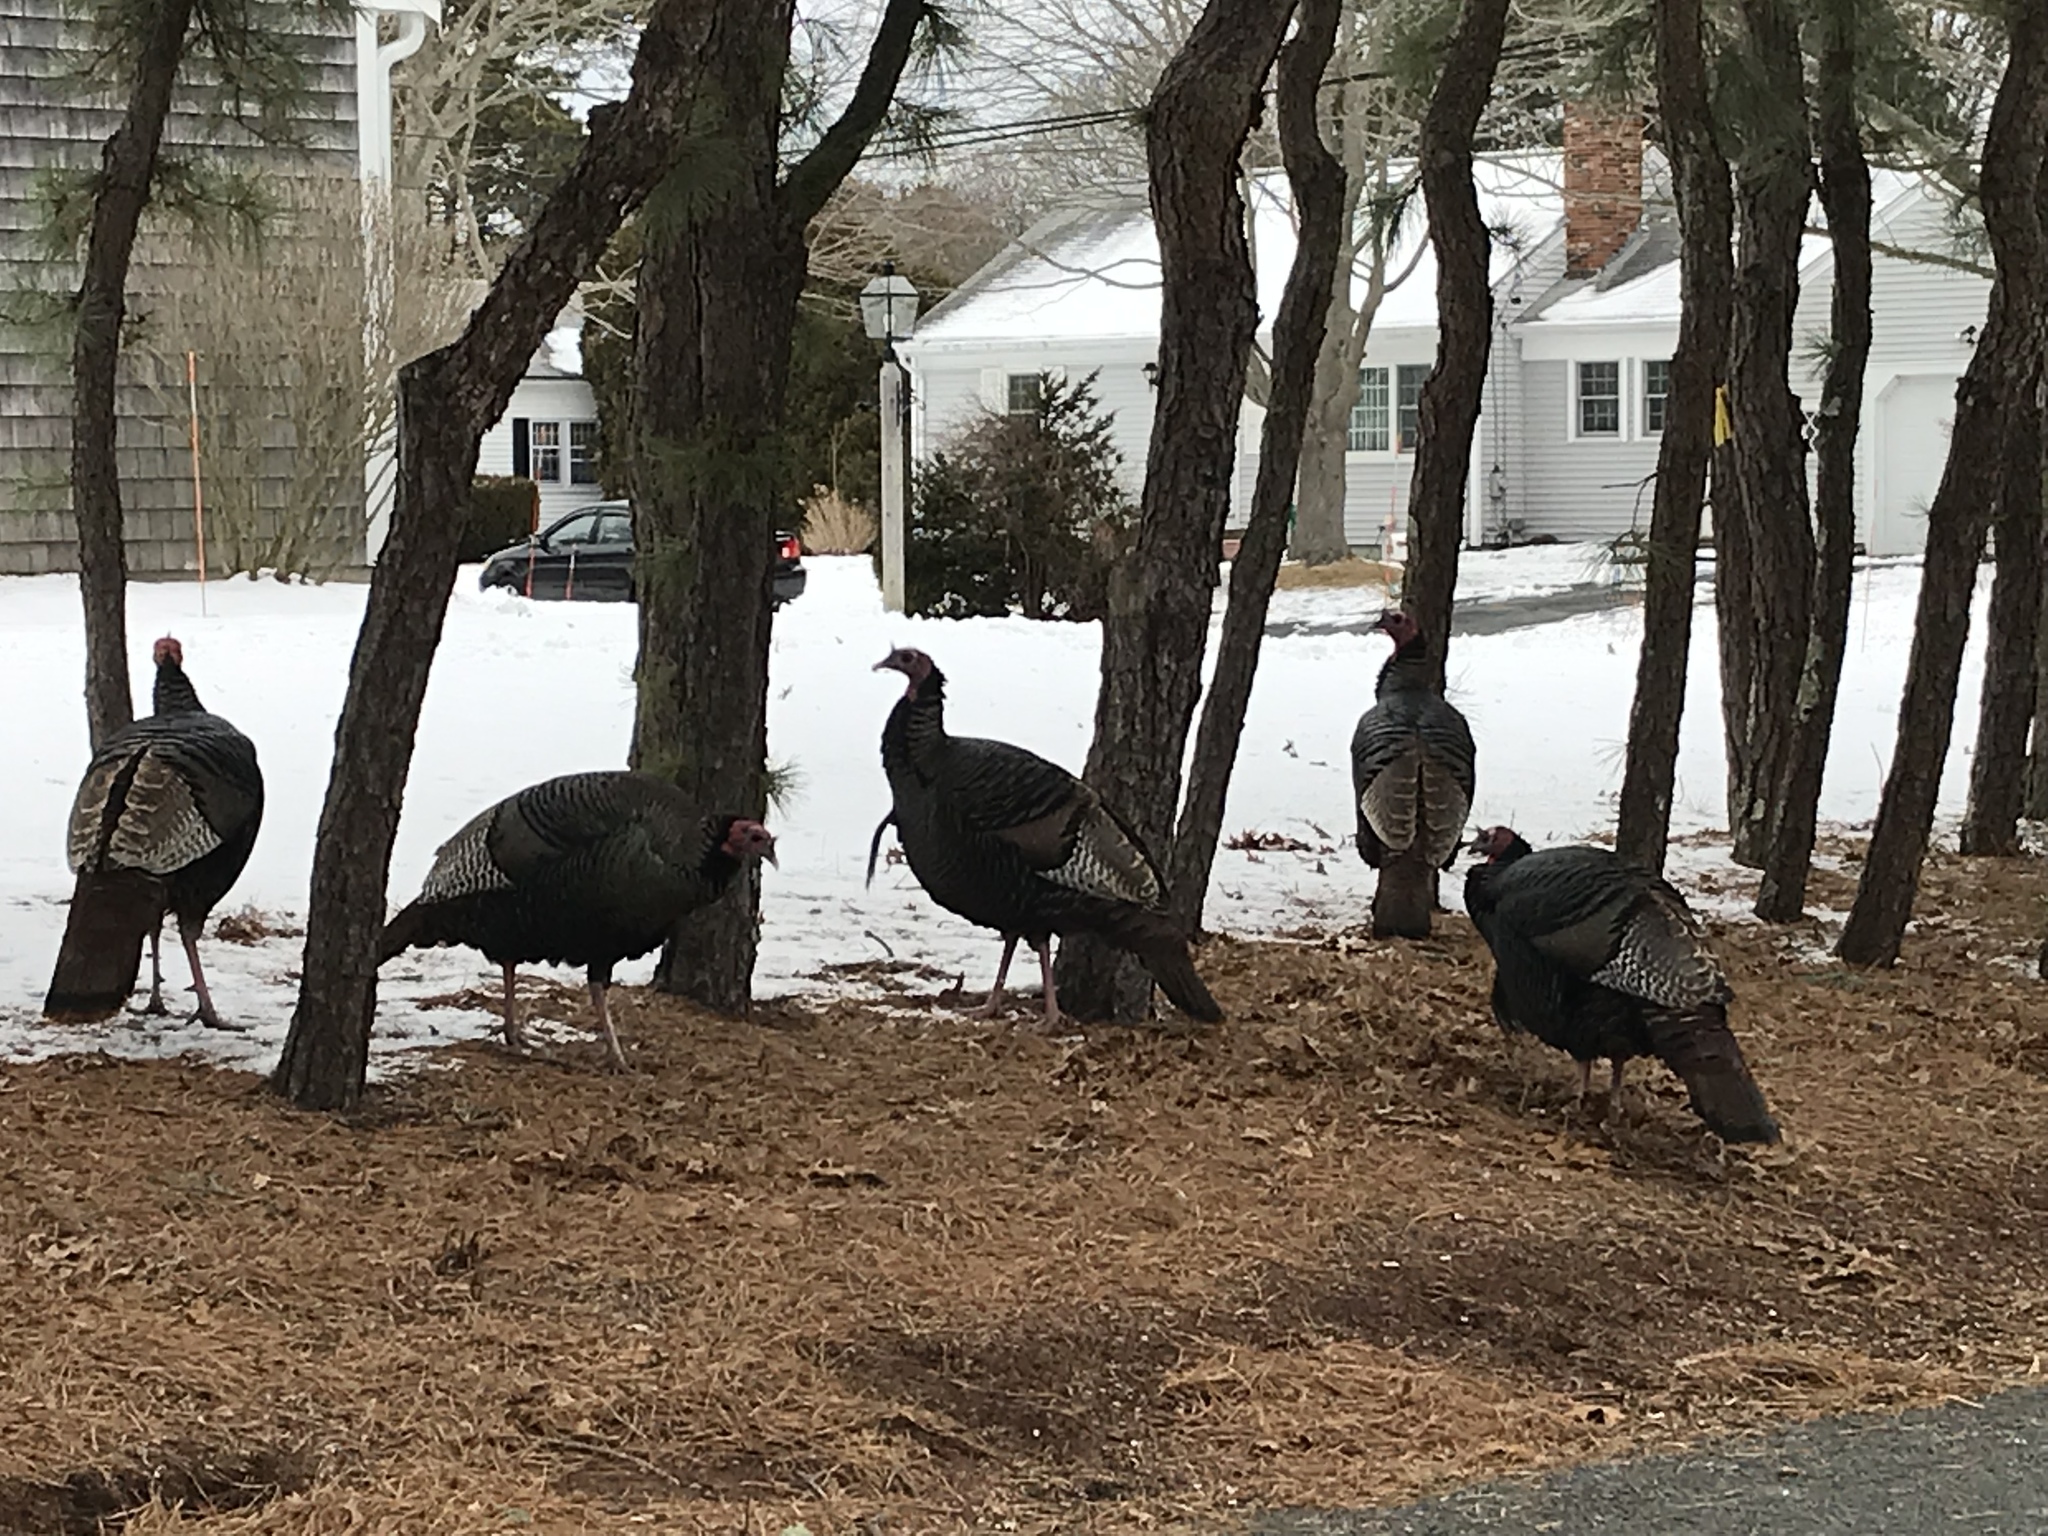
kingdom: Animalia
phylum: Chordata
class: Aves
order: Galliformes
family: Phasianidae
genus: Meleagris
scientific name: Meleagris gallopavo
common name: Wild turkey
